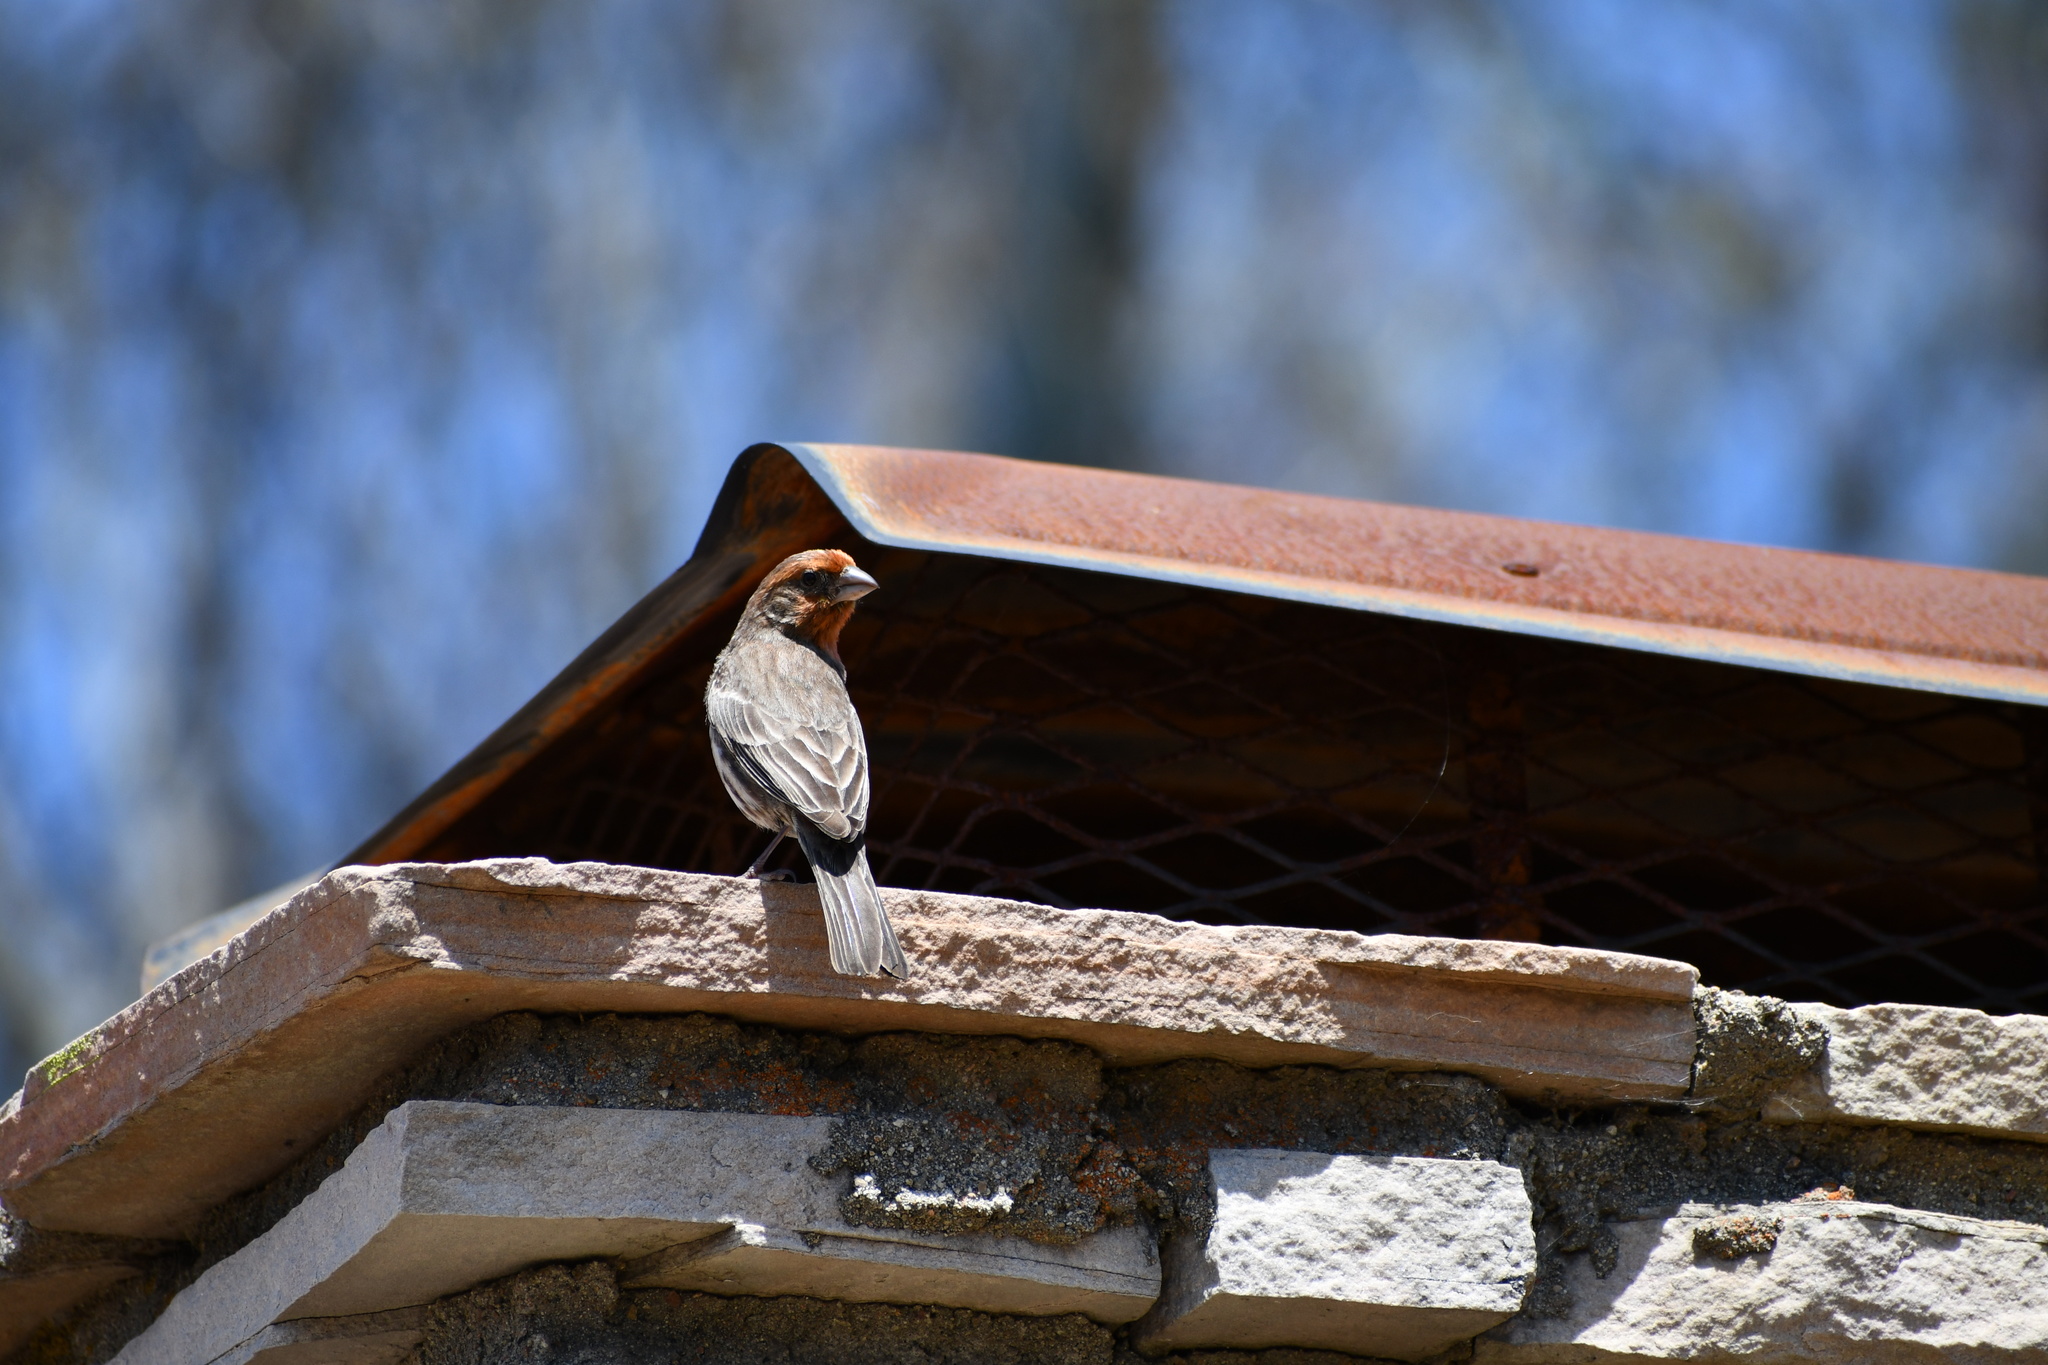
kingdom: Animalia
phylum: Chordata
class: Aves
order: Passeriformes
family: Fringillidae
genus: Haemorhous
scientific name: Haemorhous mexicanus
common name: House finch
